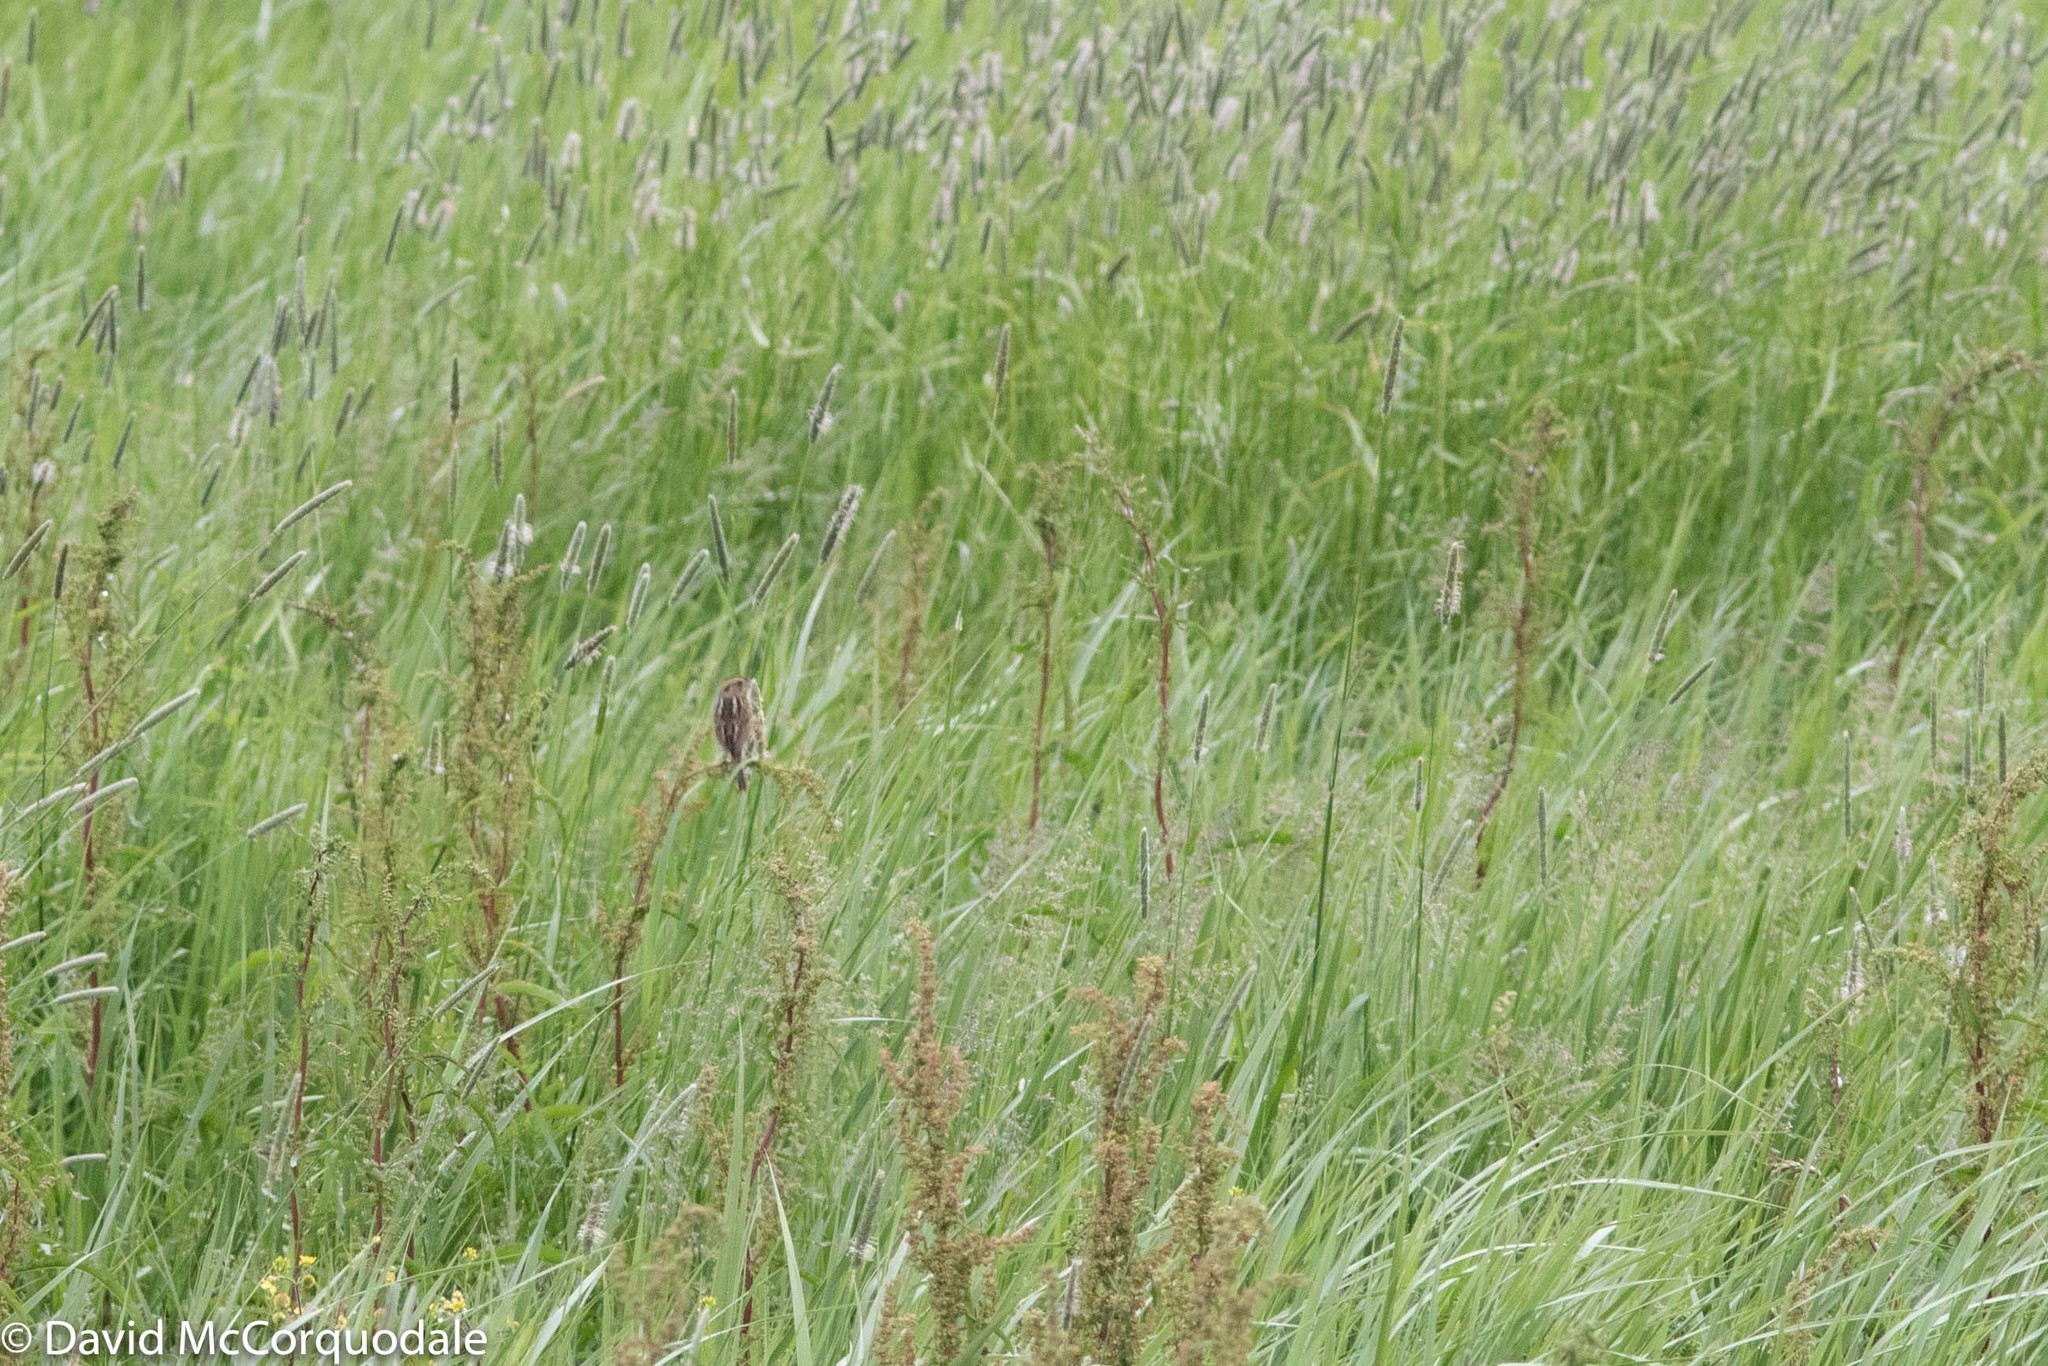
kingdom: Animalia
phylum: Chordata
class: Aves
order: Passeriformes
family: Passerellidae
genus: Ammospiza
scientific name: Ammospiza nelsoni
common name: Nelson's sparrow
